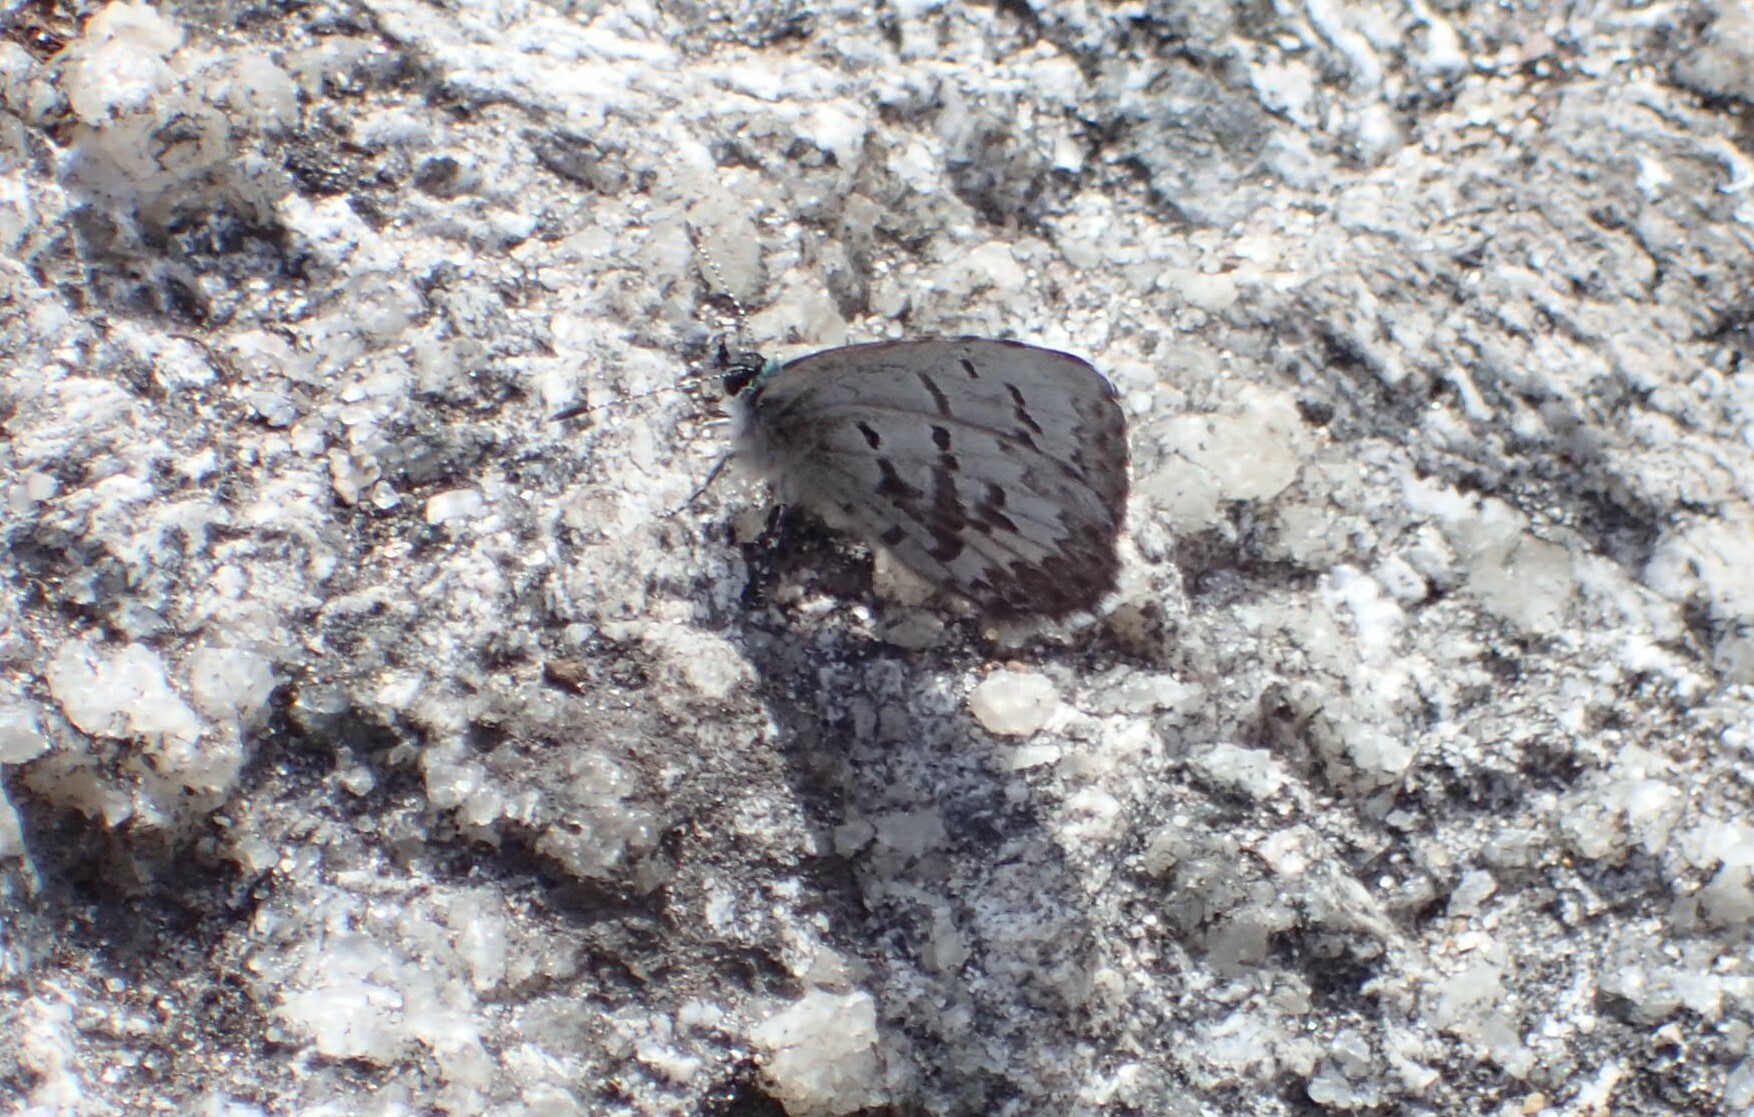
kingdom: Animalia
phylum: Arthropoda
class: Insecta
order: Lepidoptera
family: Lycaenidae
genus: Celastrina
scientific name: Celastrina lucia
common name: Lucia azure
